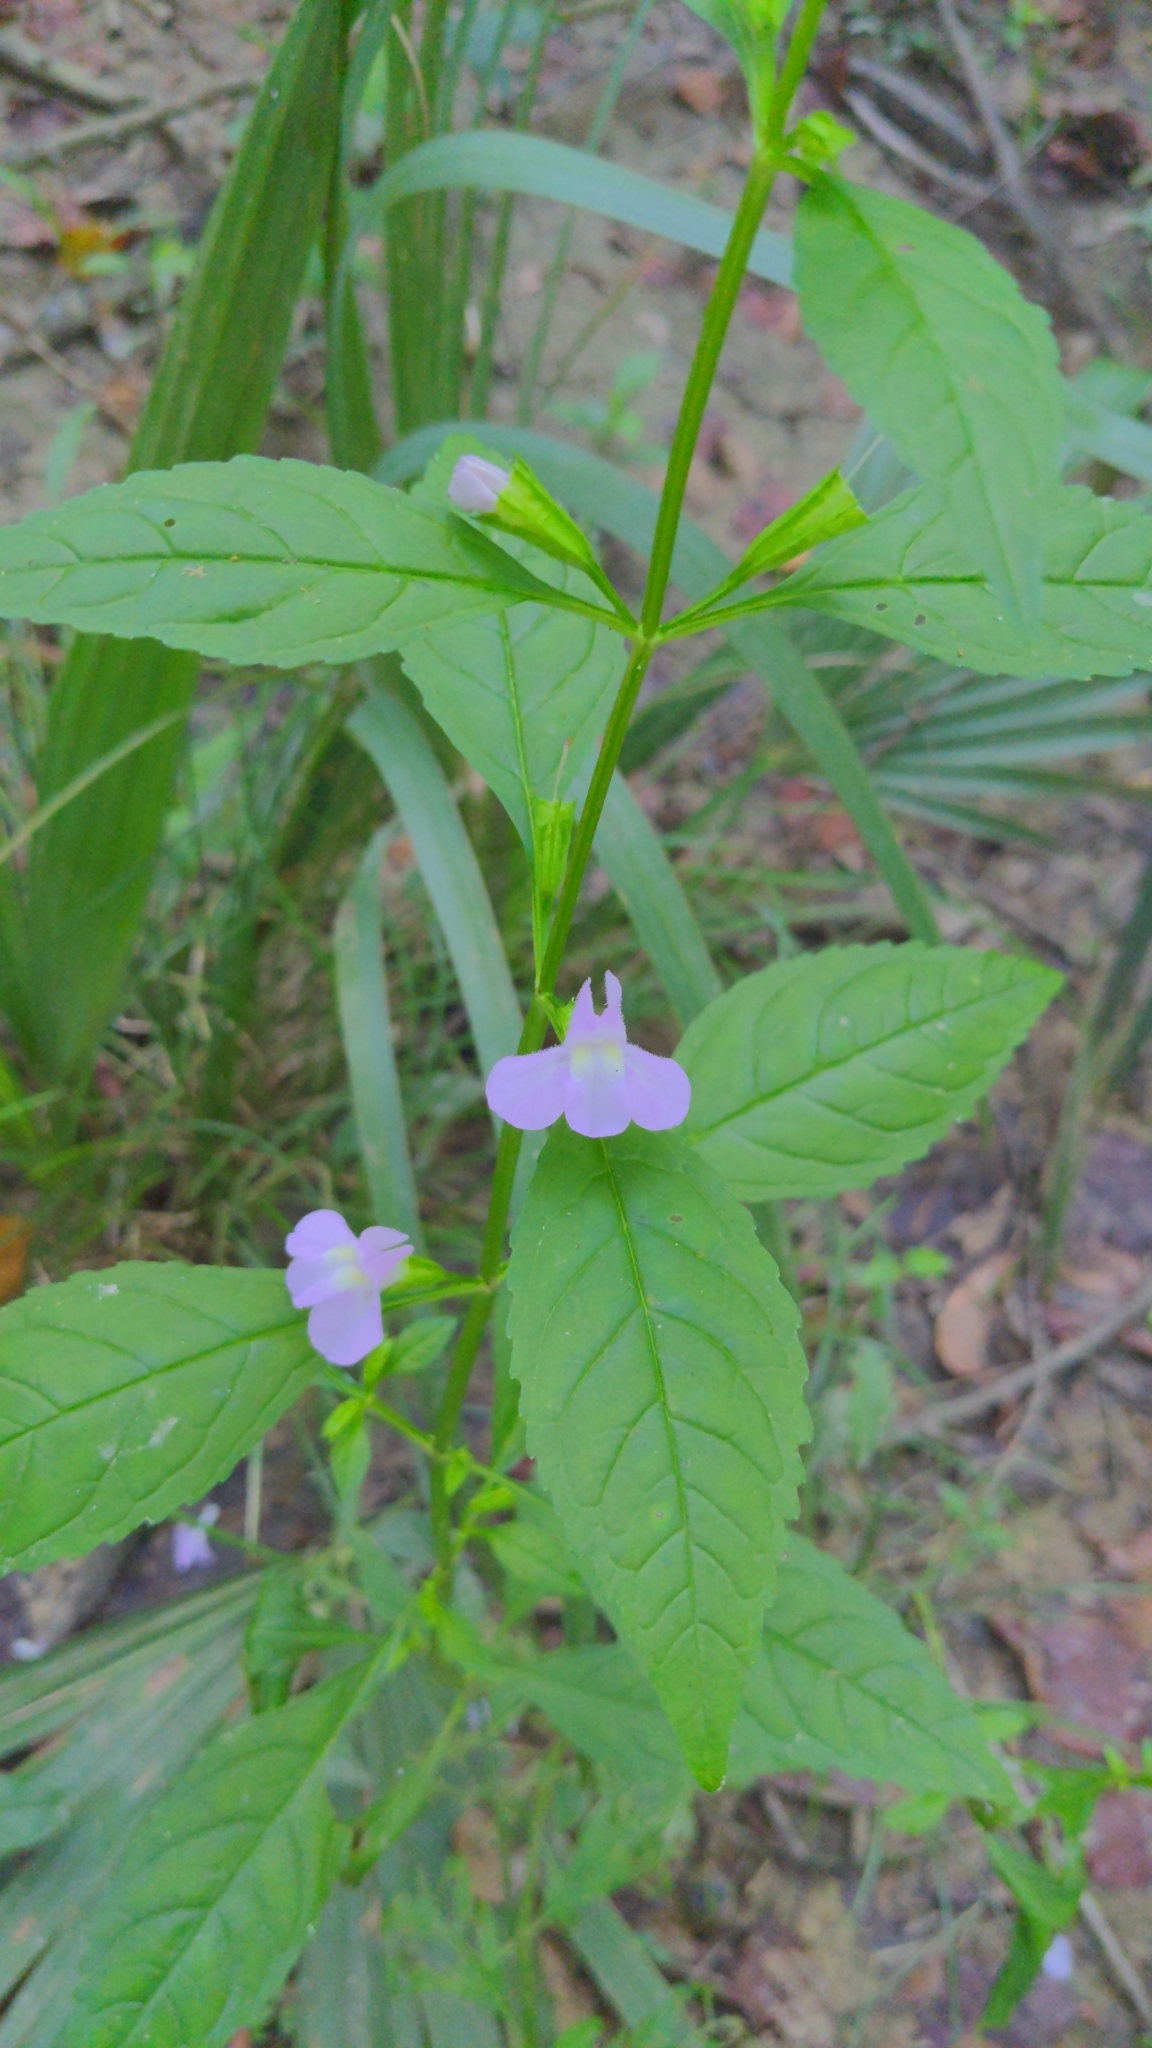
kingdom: Plantae
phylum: Tracheophyta
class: Magnoliopsida
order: Lamiales
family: Phrymaceae
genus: Mimulus
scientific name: Mimulus alatus
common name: Sharp-wing monkey-flower
